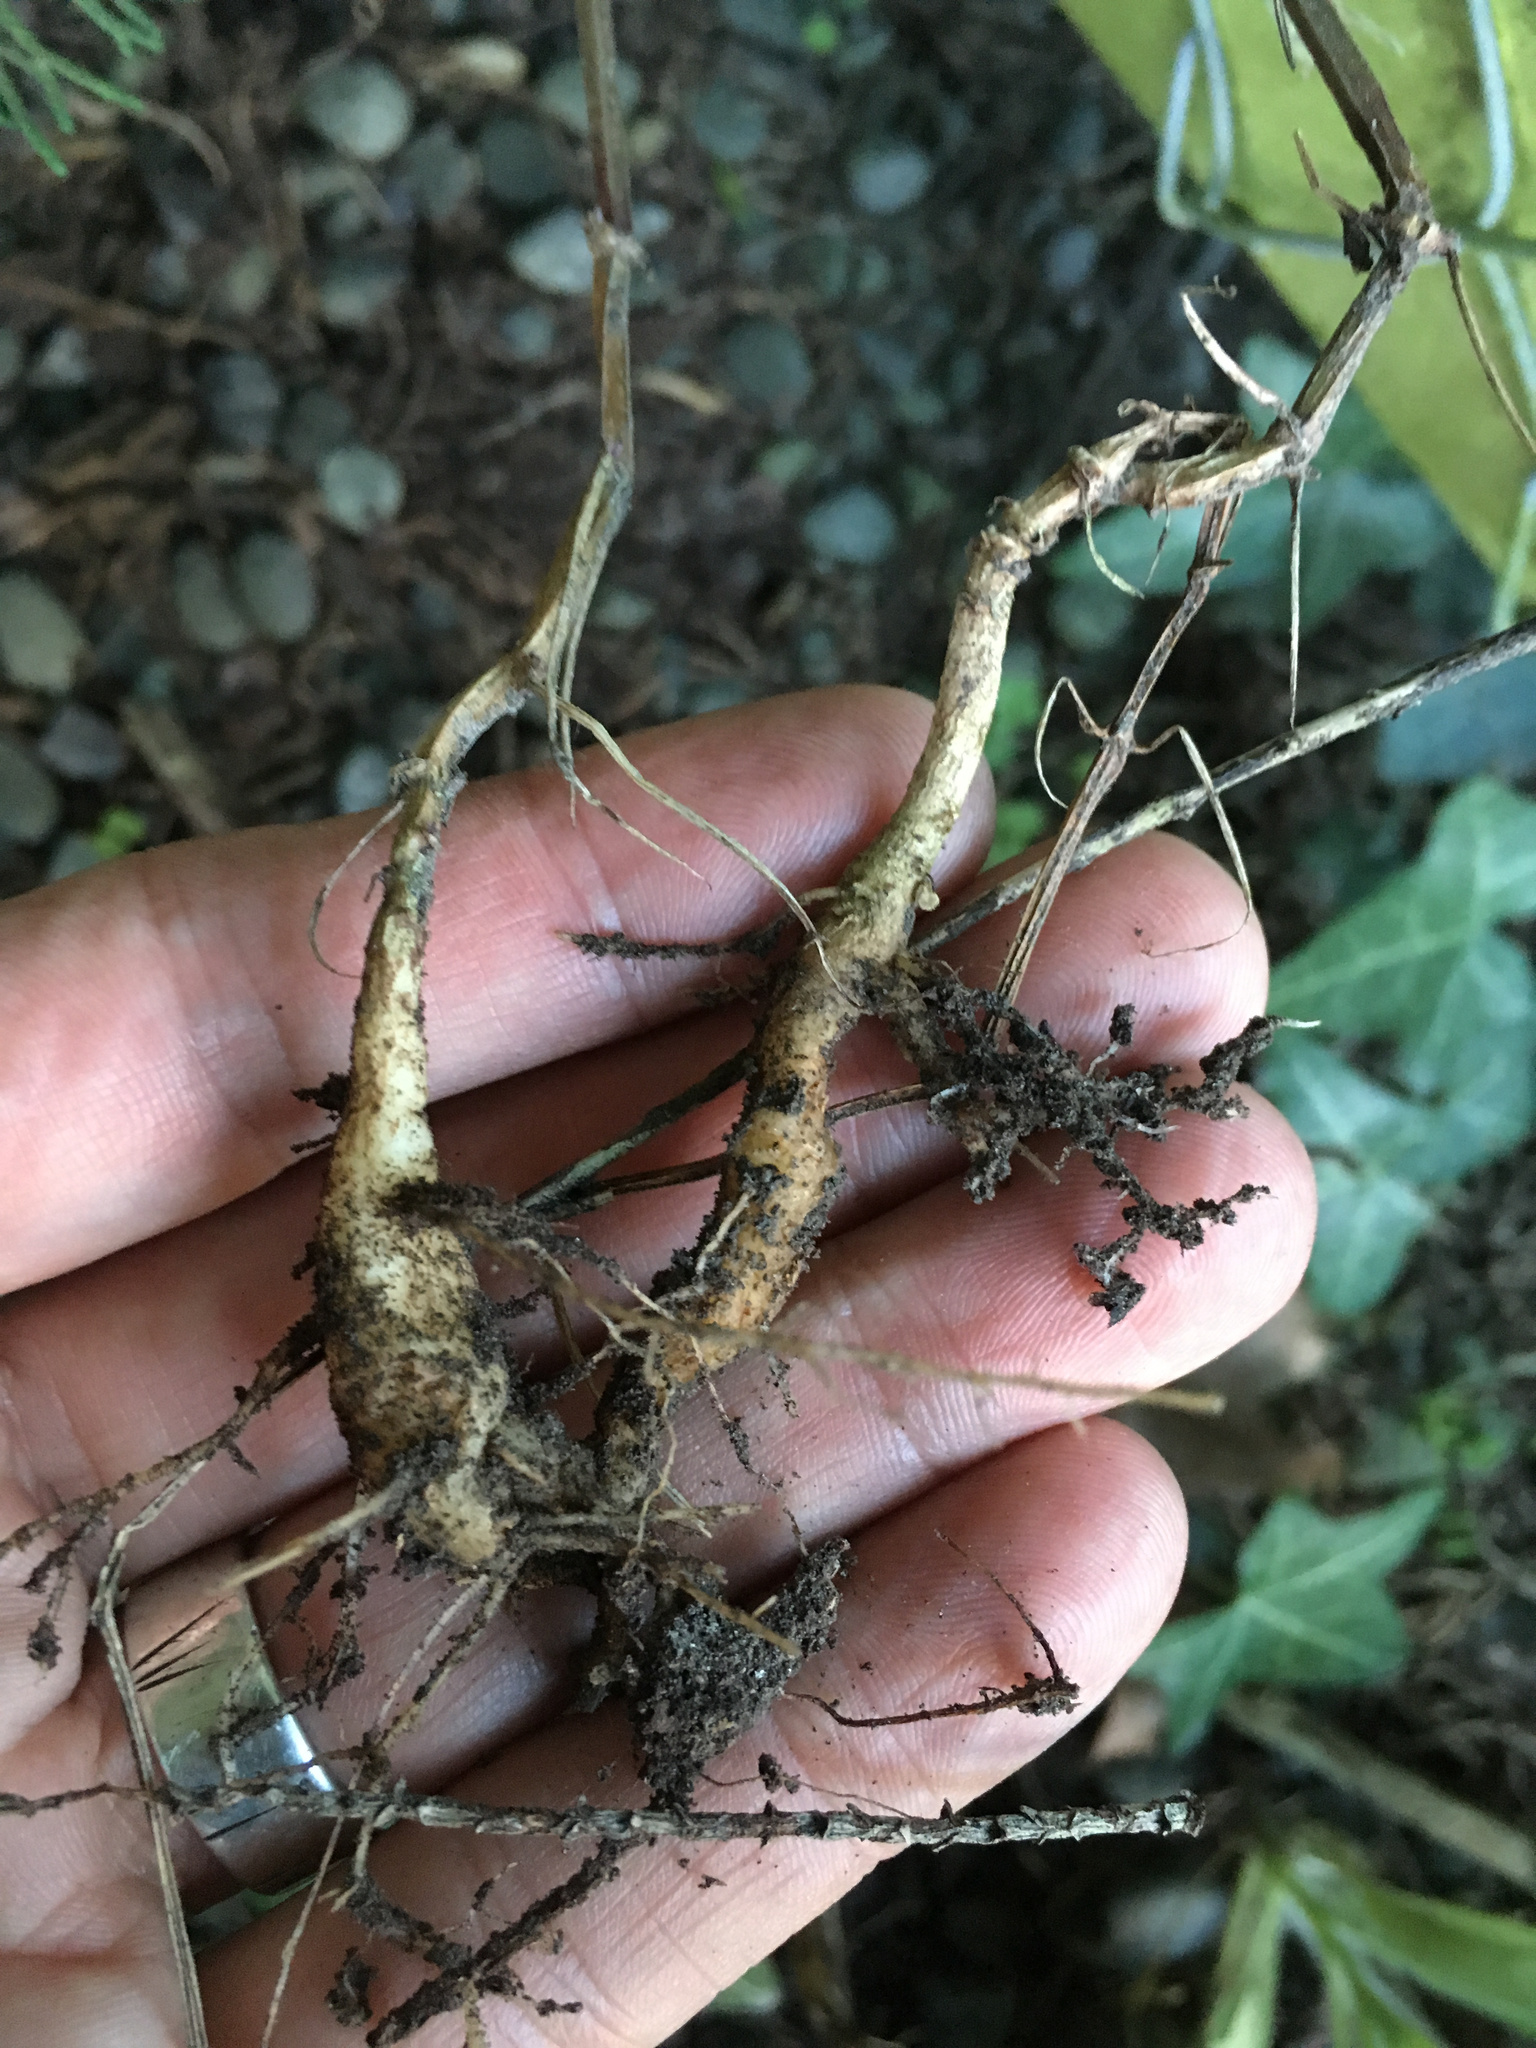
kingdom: Plantae
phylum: Tracheophyta
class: Magnoliopsida
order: Lamiales
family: Bignoniaceae
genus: Eccremocarpus
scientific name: Eccremocarpus scaber
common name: Chilean glory-flower
